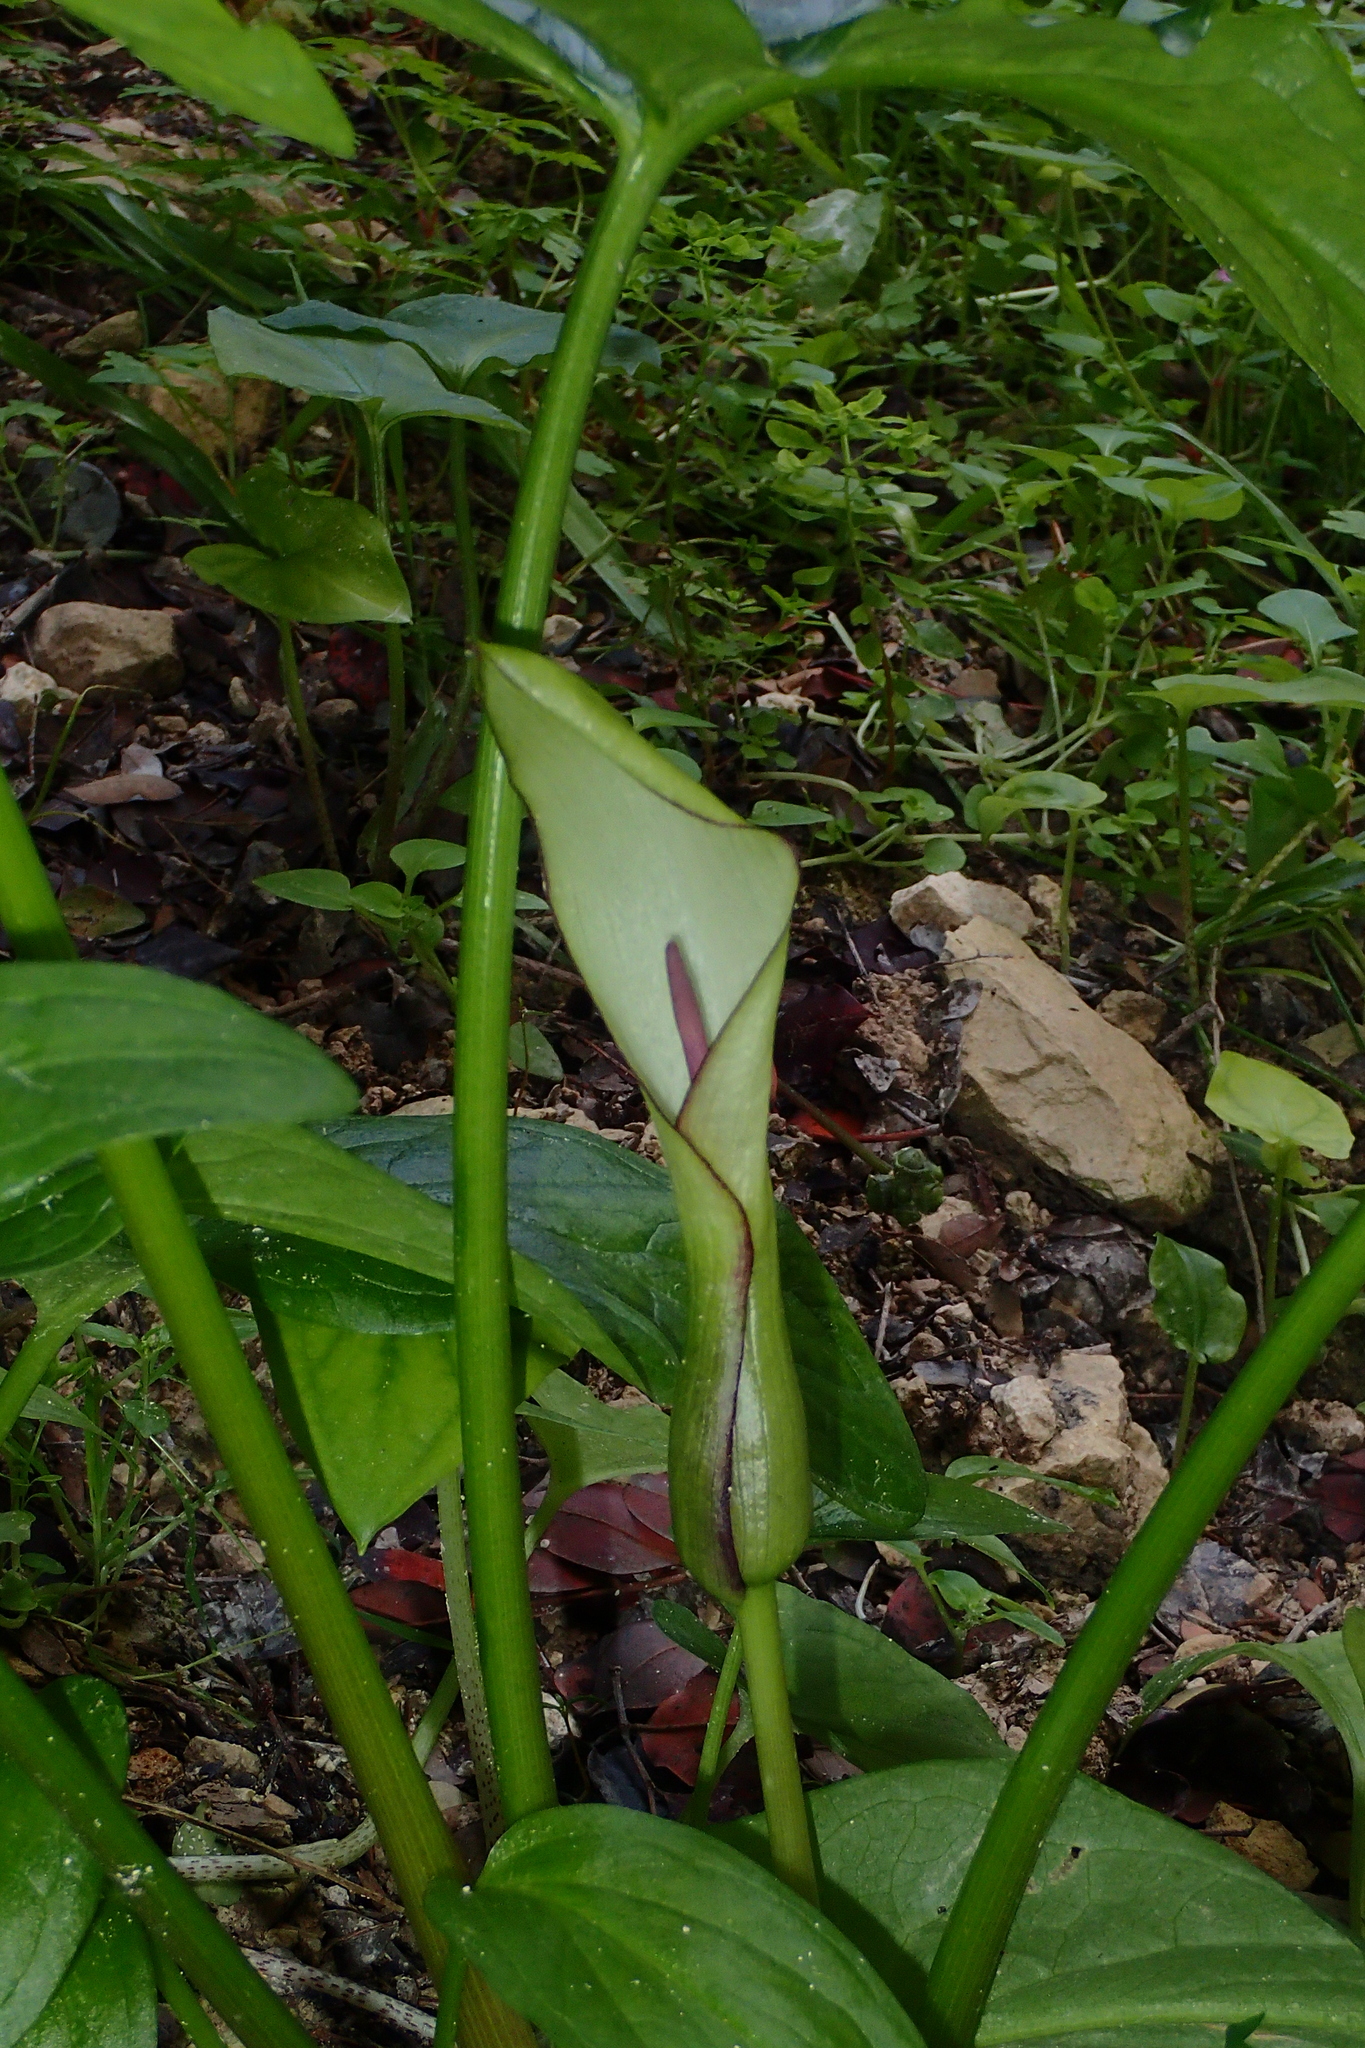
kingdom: Plantae
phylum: Tracheophyta
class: Liliopsida
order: Alismatales
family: Araceae
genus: Arum
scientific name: Arum hygrophilum
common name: Water arum
